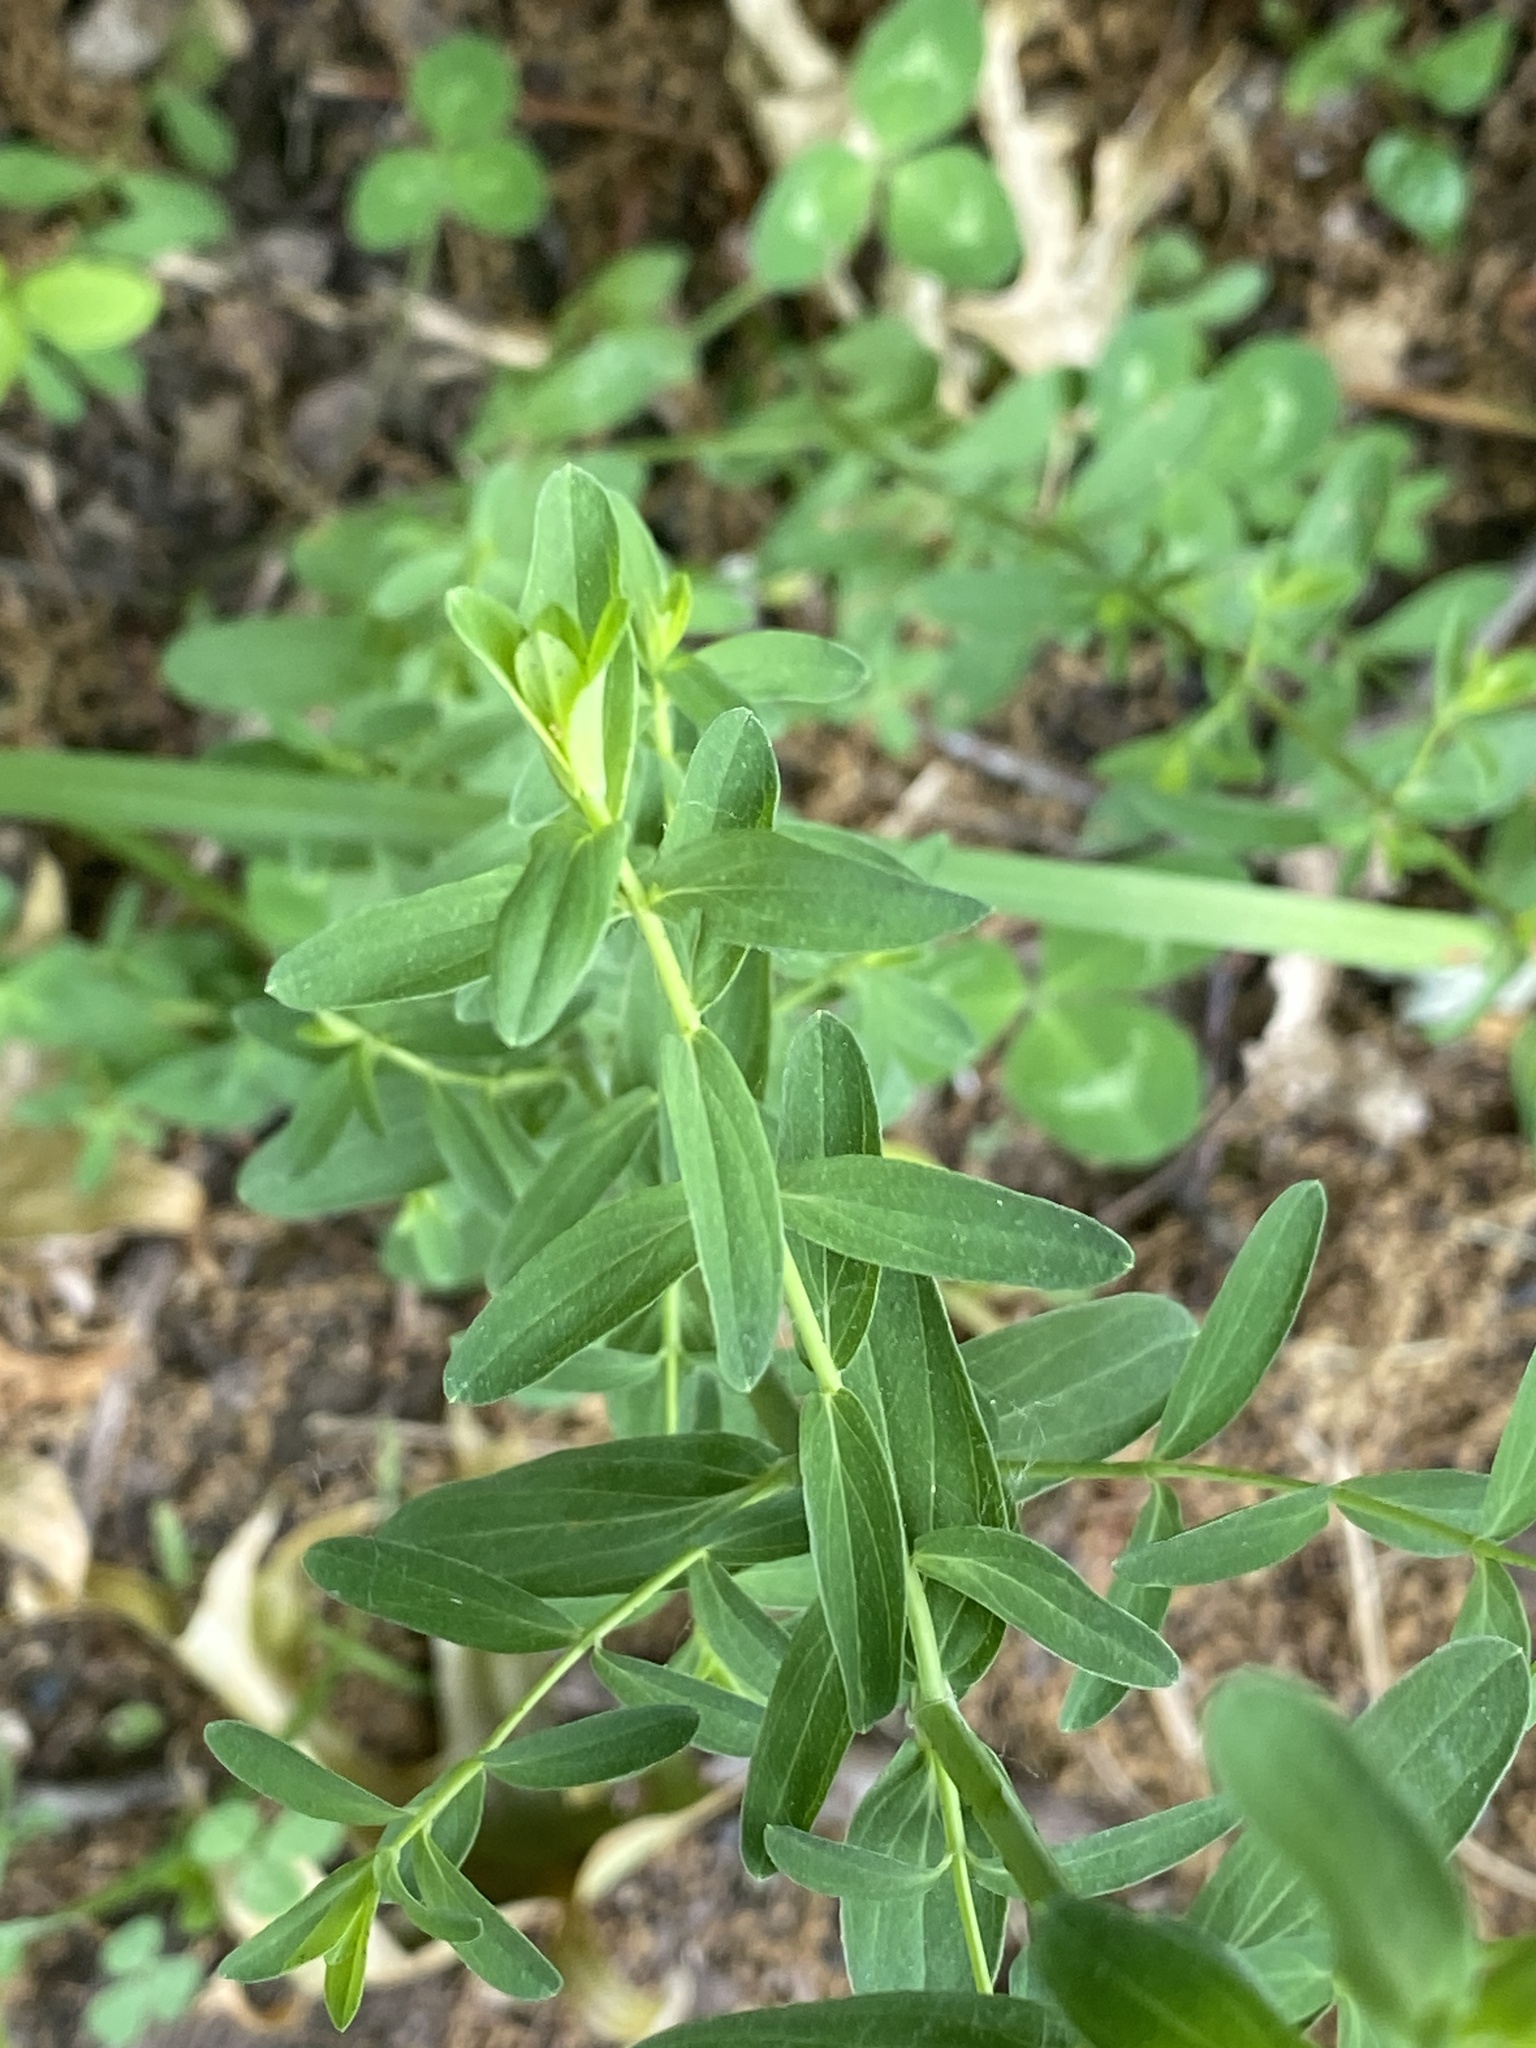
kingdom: Plantae
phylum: Tracheophyta
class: Magnoliopsida
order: Malpighiales
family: Hypericaceae
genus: Hypericum
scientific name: Hypericum perforatum
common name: Common st. johnswort
